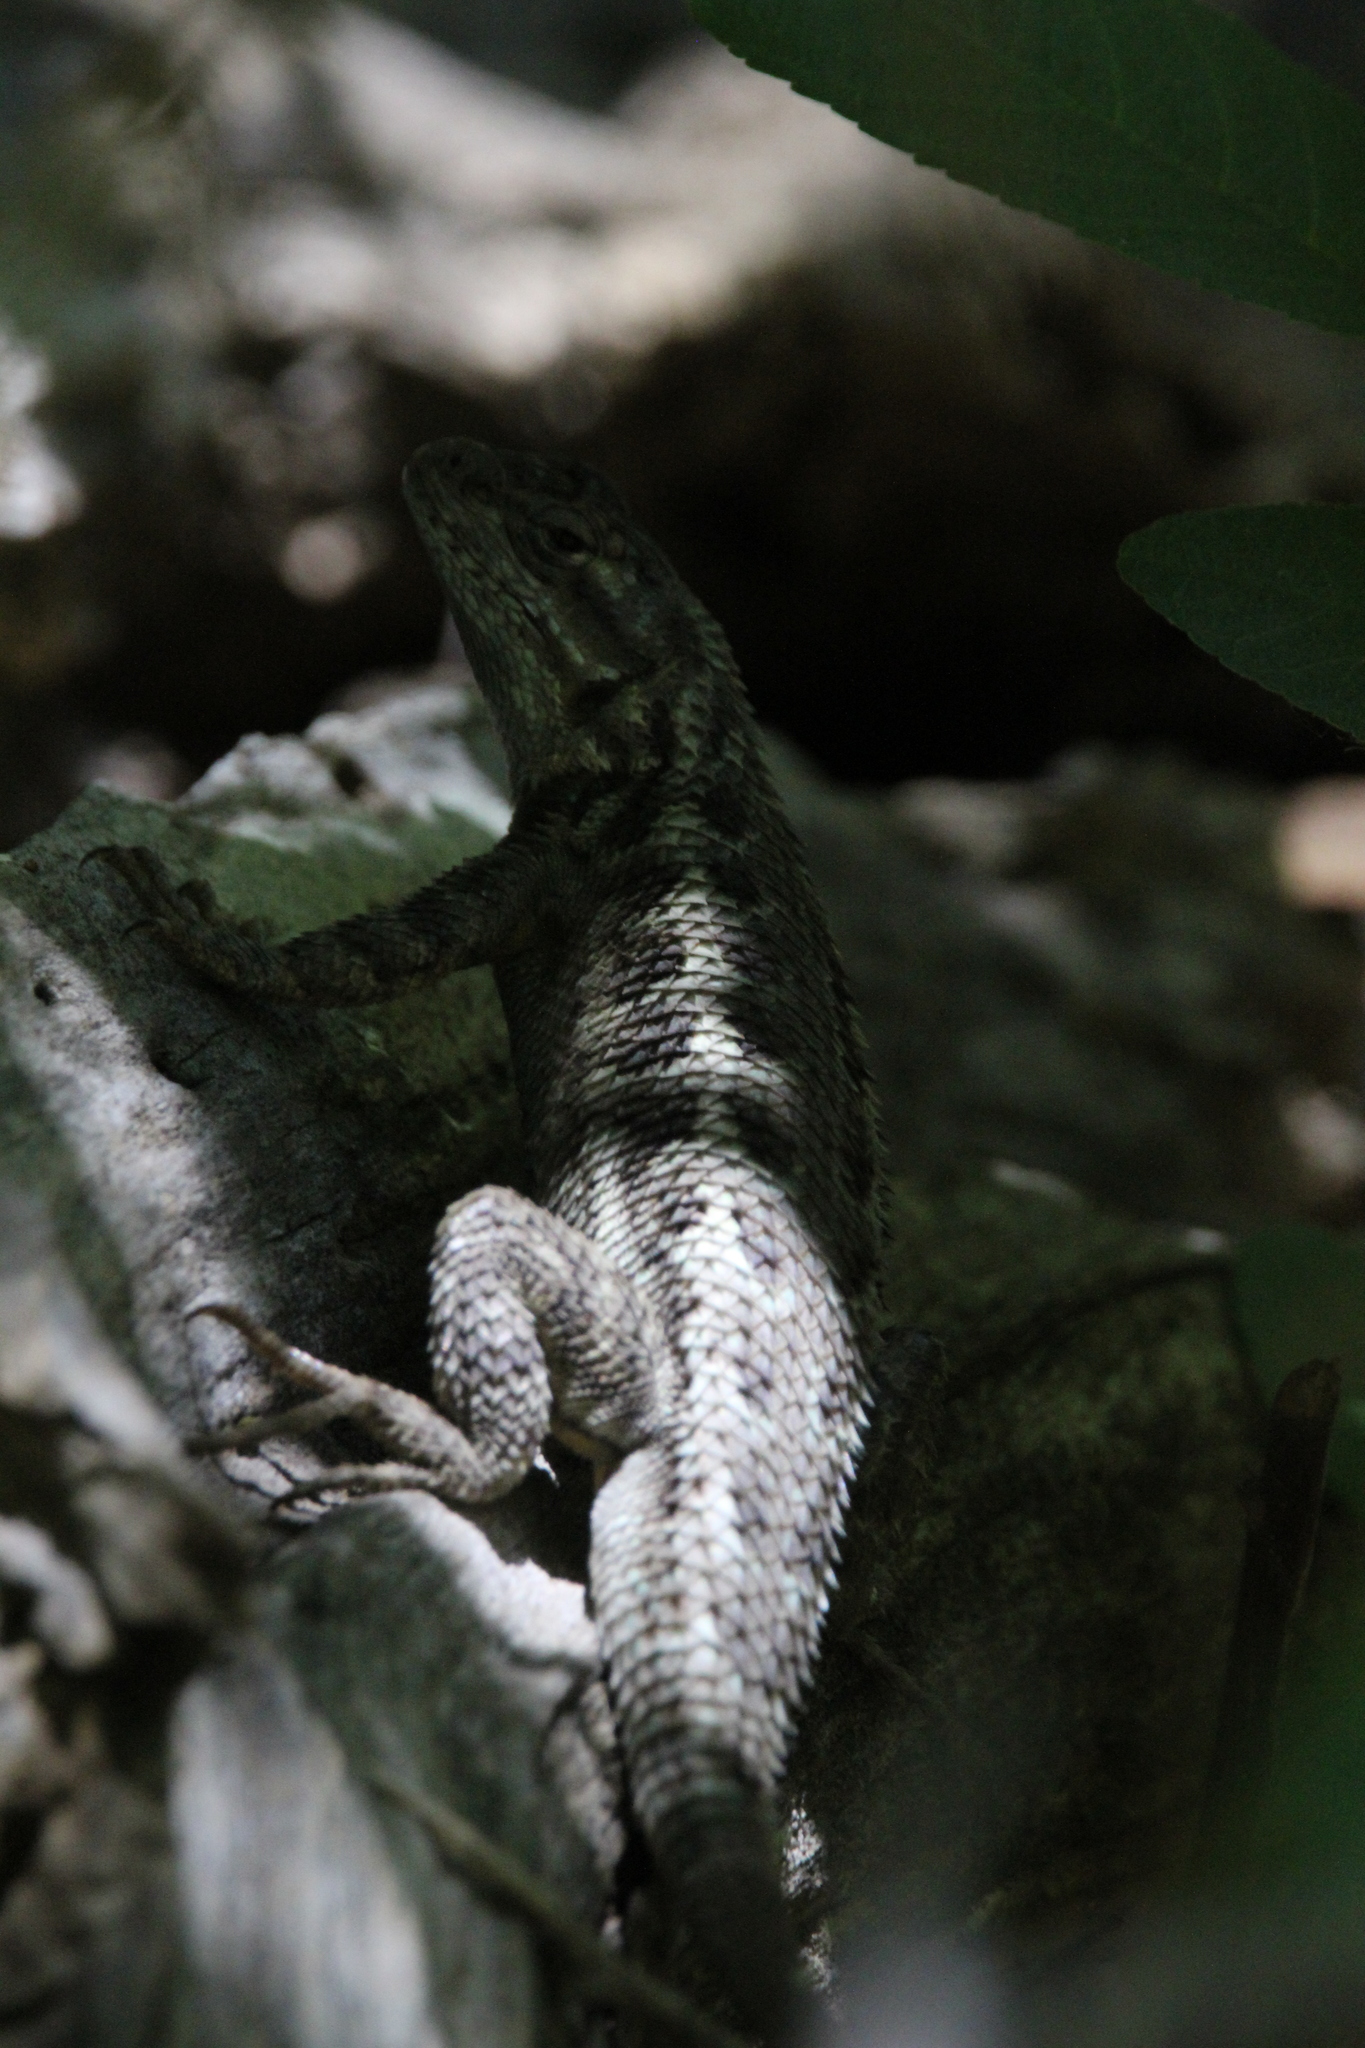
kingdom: Animalia
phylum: Chordata
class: Squamata
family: Phrynosomatidae
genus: Sceloporus
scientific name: Sceloporus occidentalis
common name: Western fence lizard
